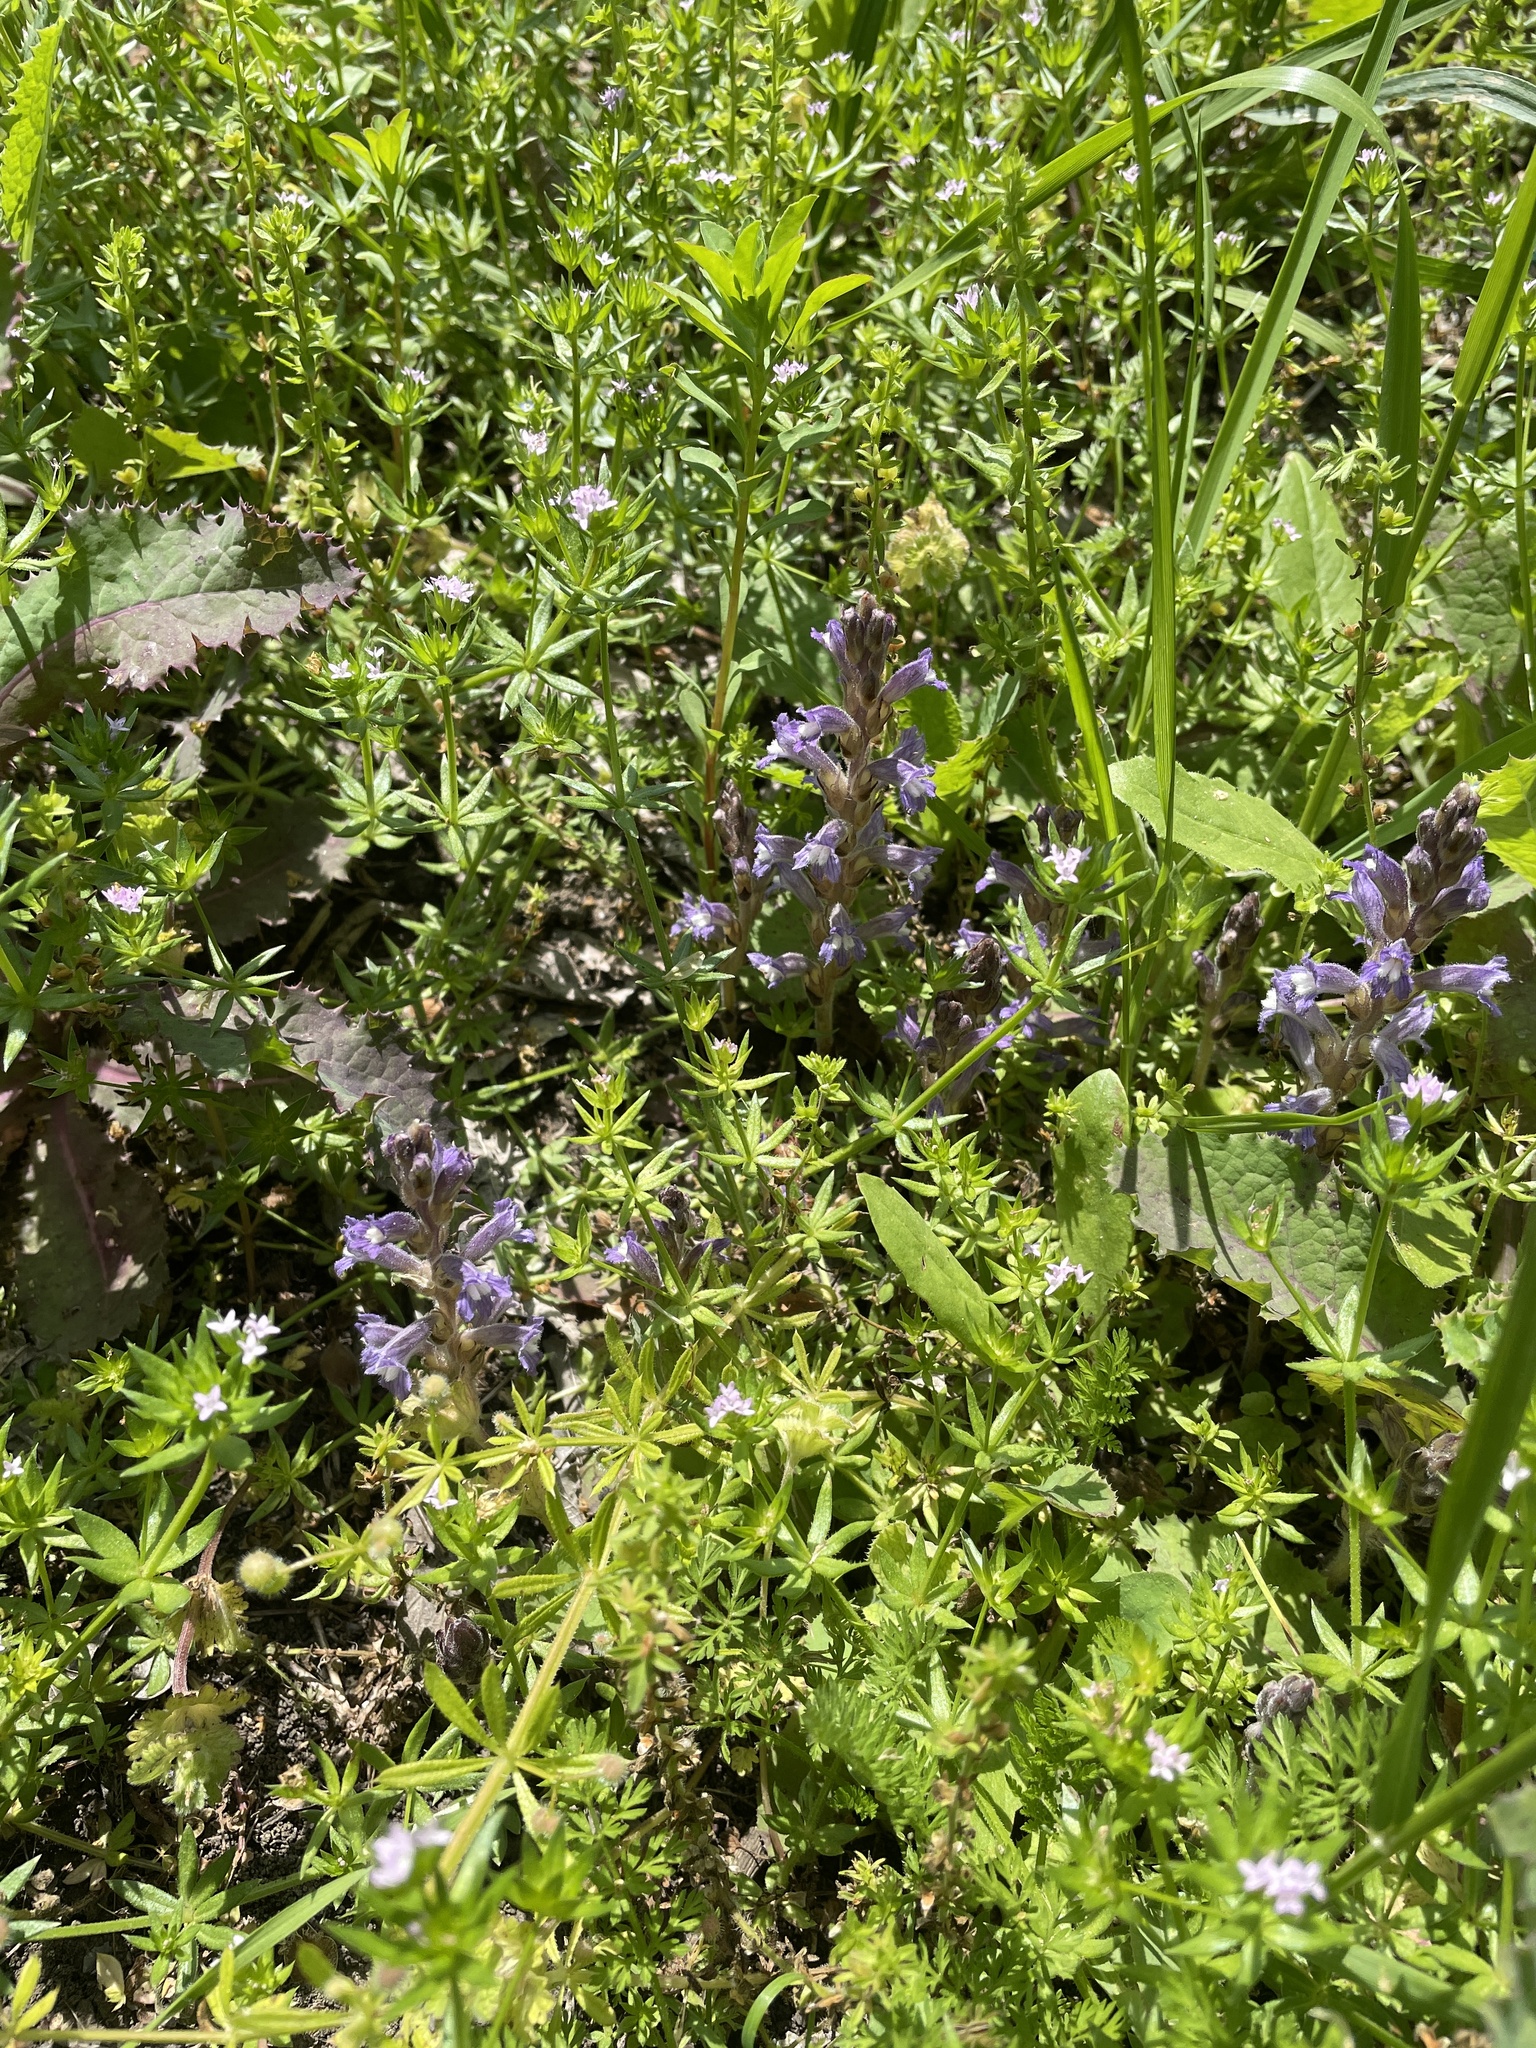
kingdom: Plantae
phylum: Tracheophyta
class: Magnoliopsida
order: Lamiales
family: Orobanchaceae
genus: Phelipanche
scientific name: Phelipanche mutelii
